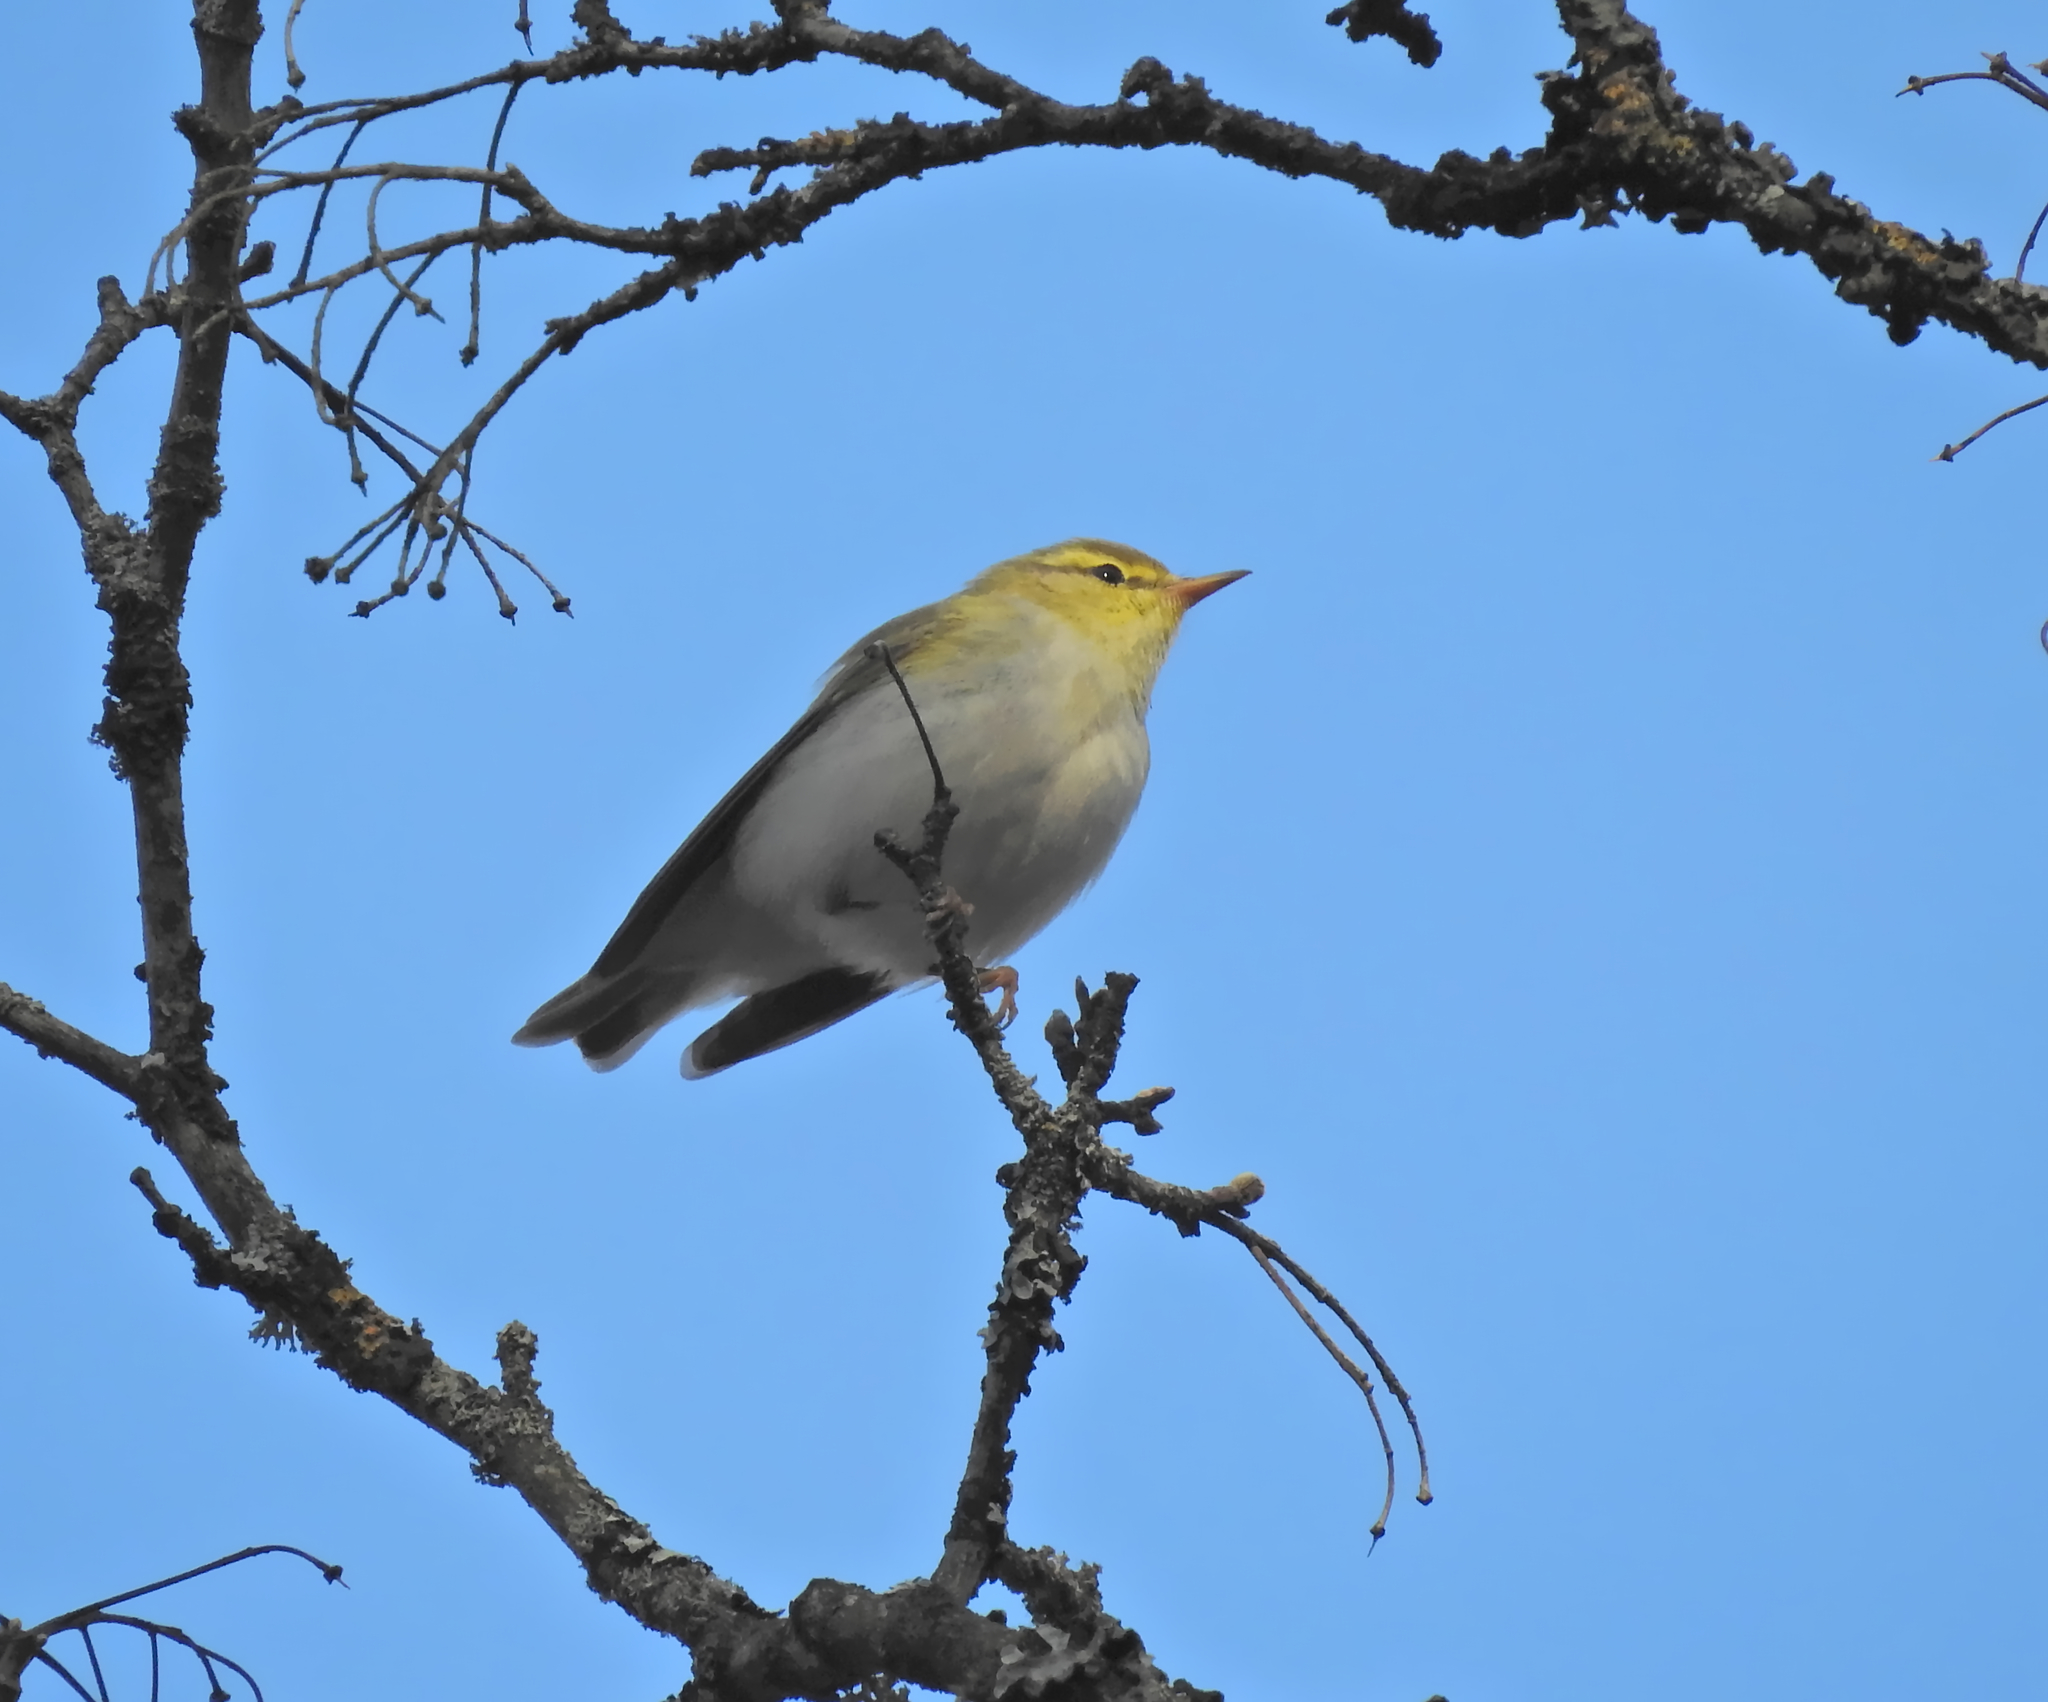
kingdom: Animalia
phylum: Chordata
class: Aves
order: Passeriformes
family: Phylloscopidae
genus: Phylloscopus
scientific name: Phylloscopus sibillatrix
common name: Wood warbler
